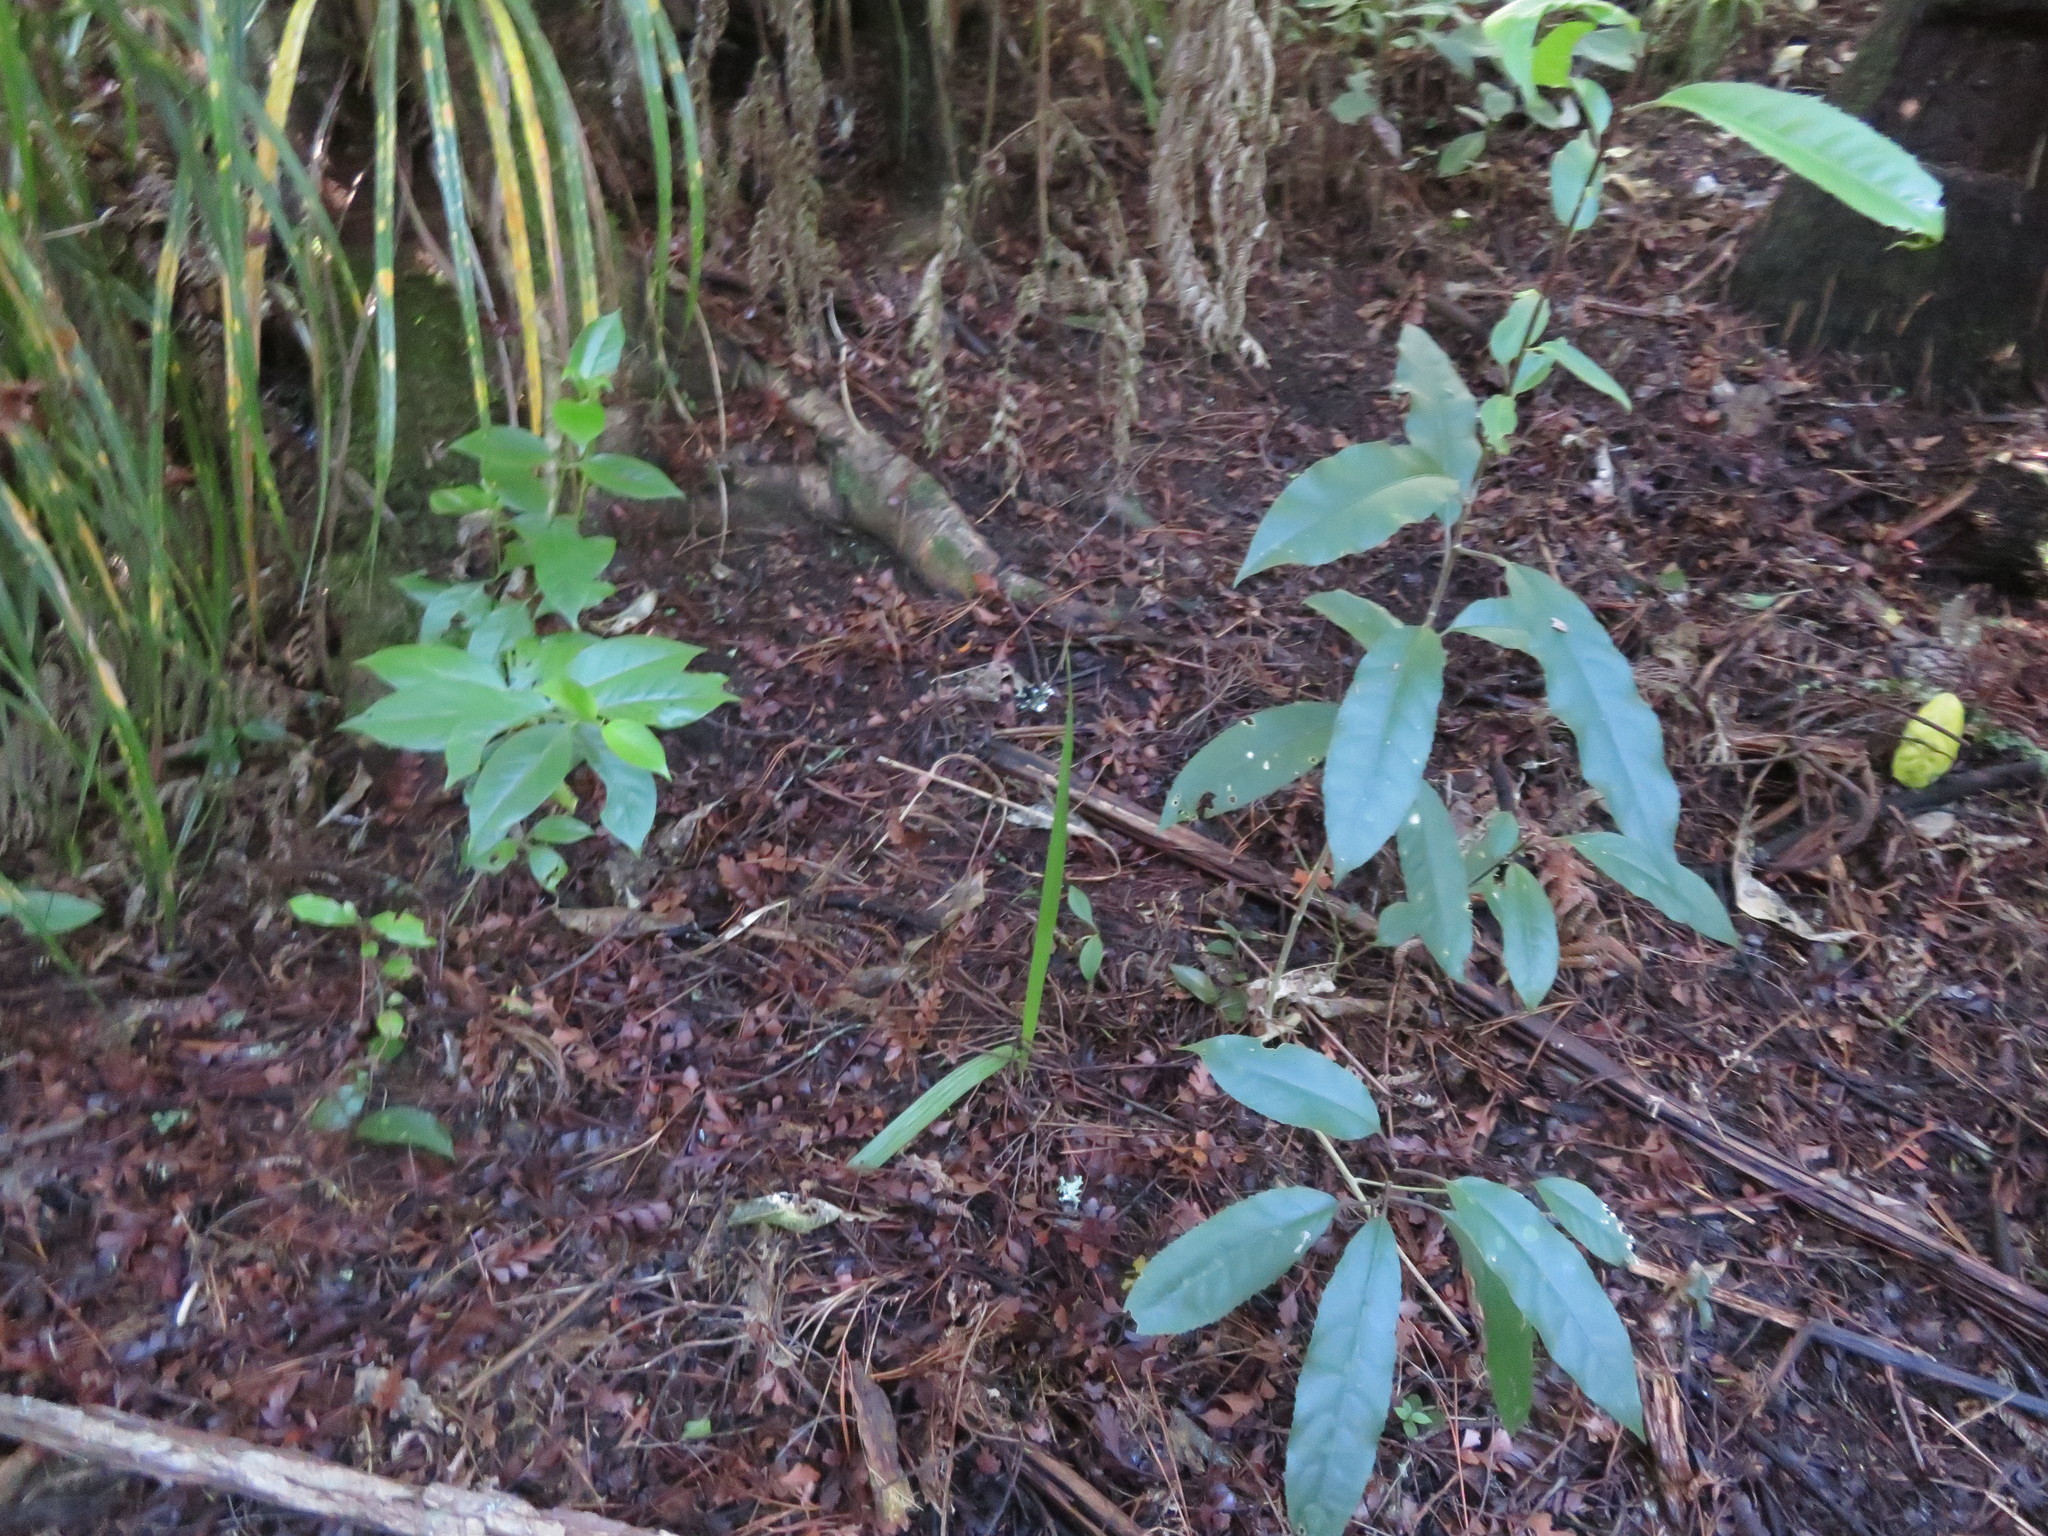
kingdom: Plantae
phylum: Tracheophyta
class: Magnoliopsida
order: Malpighiales
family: Violaceae
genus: Melicytus
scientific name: Melicytus ramiflorus
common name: Mahoe
